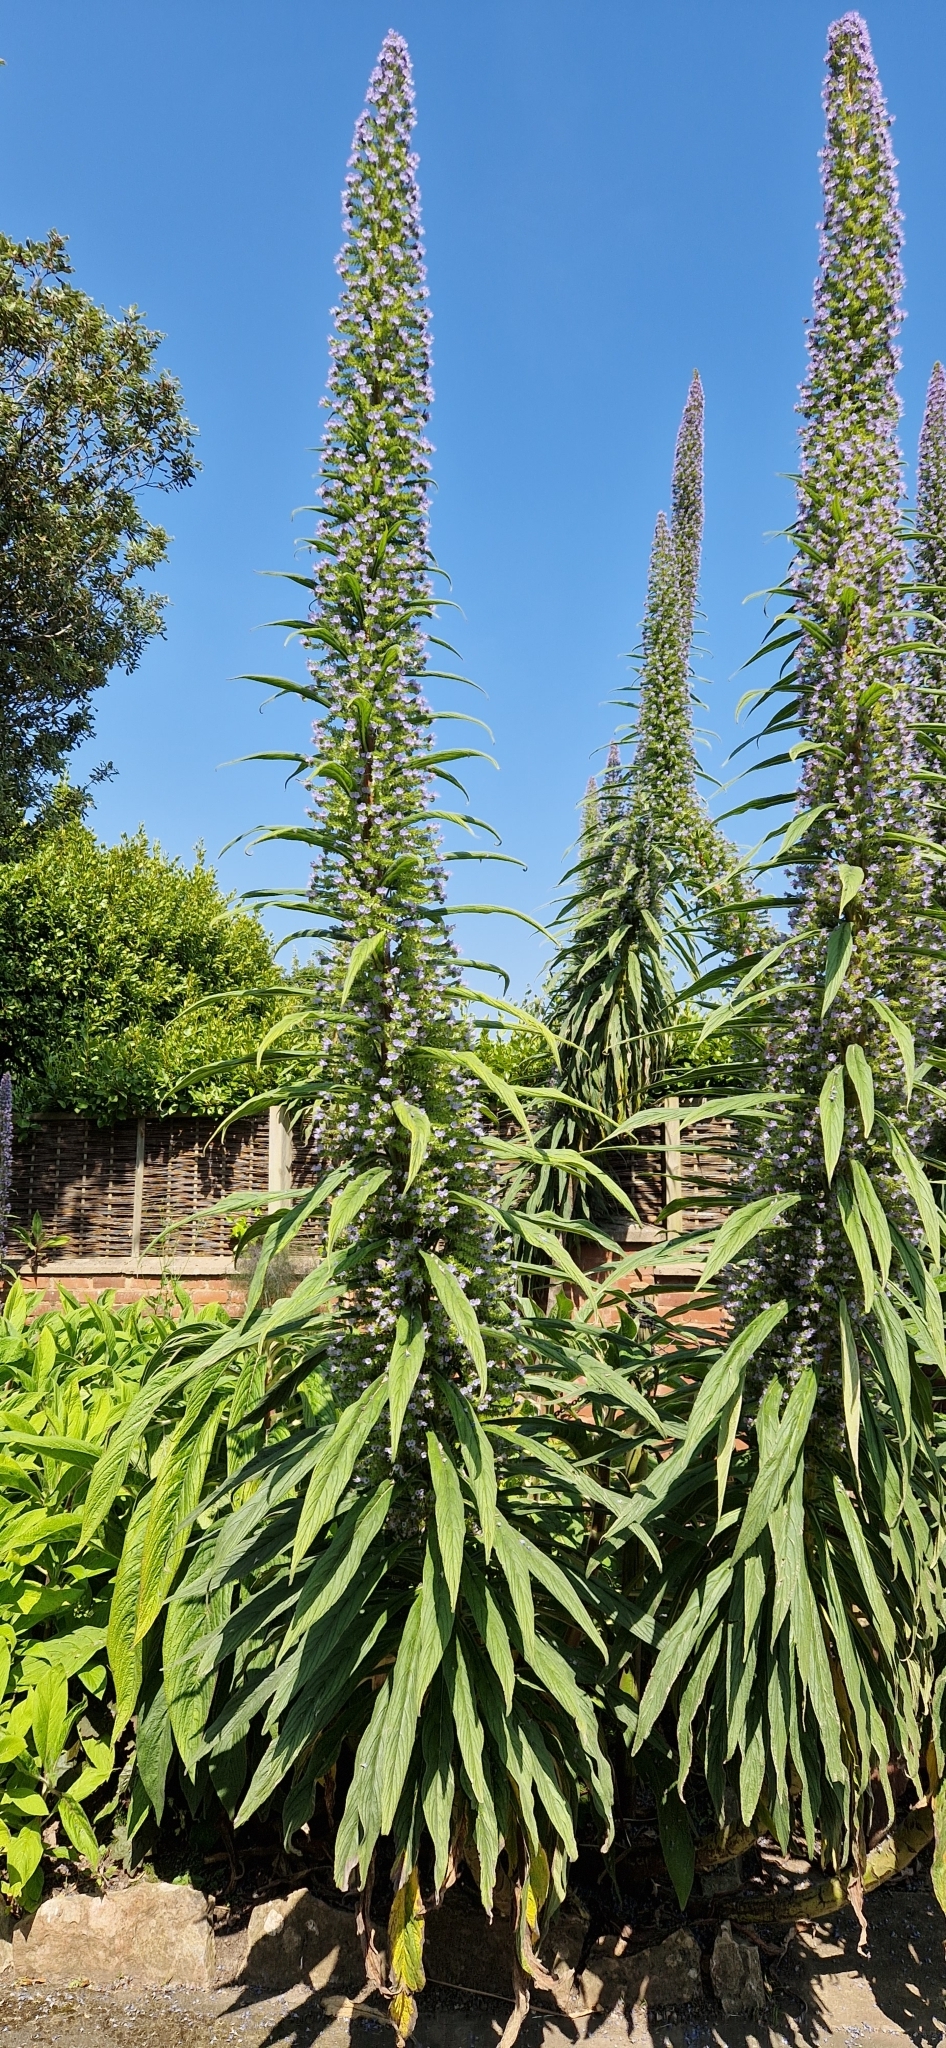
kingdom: Plantae
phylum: Tracheophyta
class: Magnoliopsida
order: Boraginales
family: Boraginaceae
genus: Echium
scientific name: Echium pininana
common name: Giant viper's-bugloss
